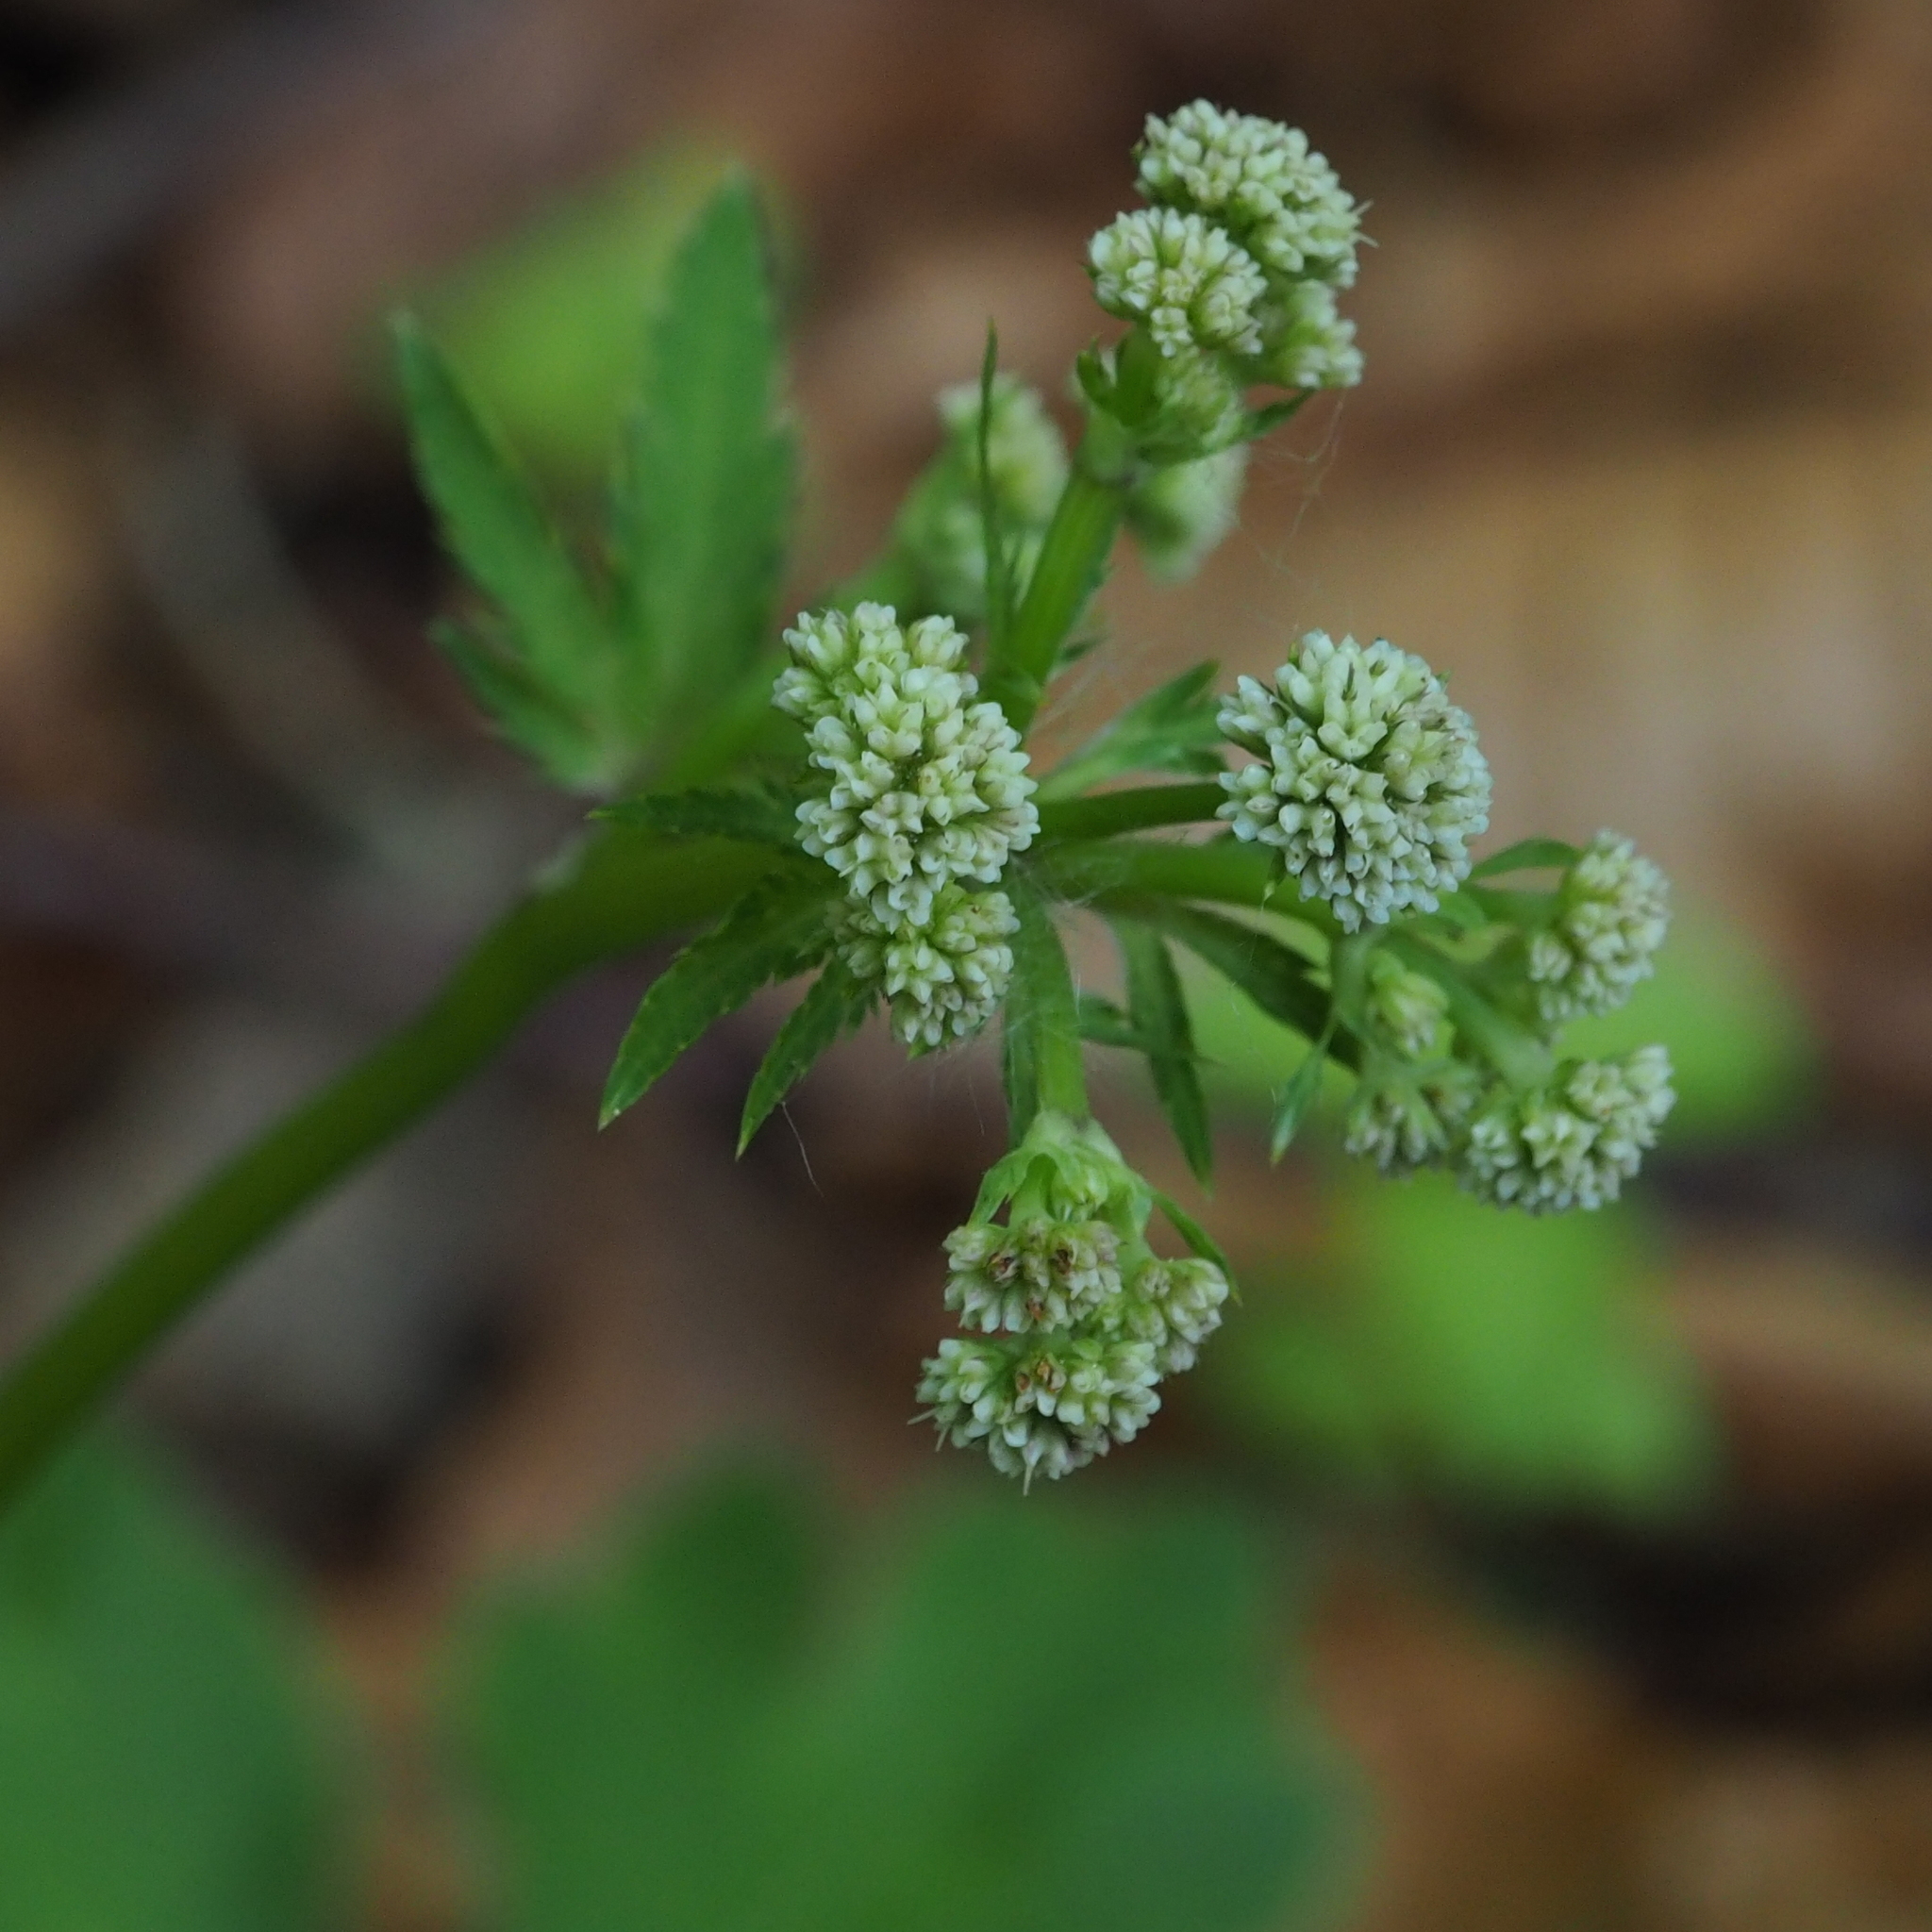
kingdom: Plantae
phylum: Tracheophyta
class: Magnoliopsida
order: Apiales
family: Apiaceae
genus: Sanicula
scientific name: Sanicula europaea
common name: Sanicle
